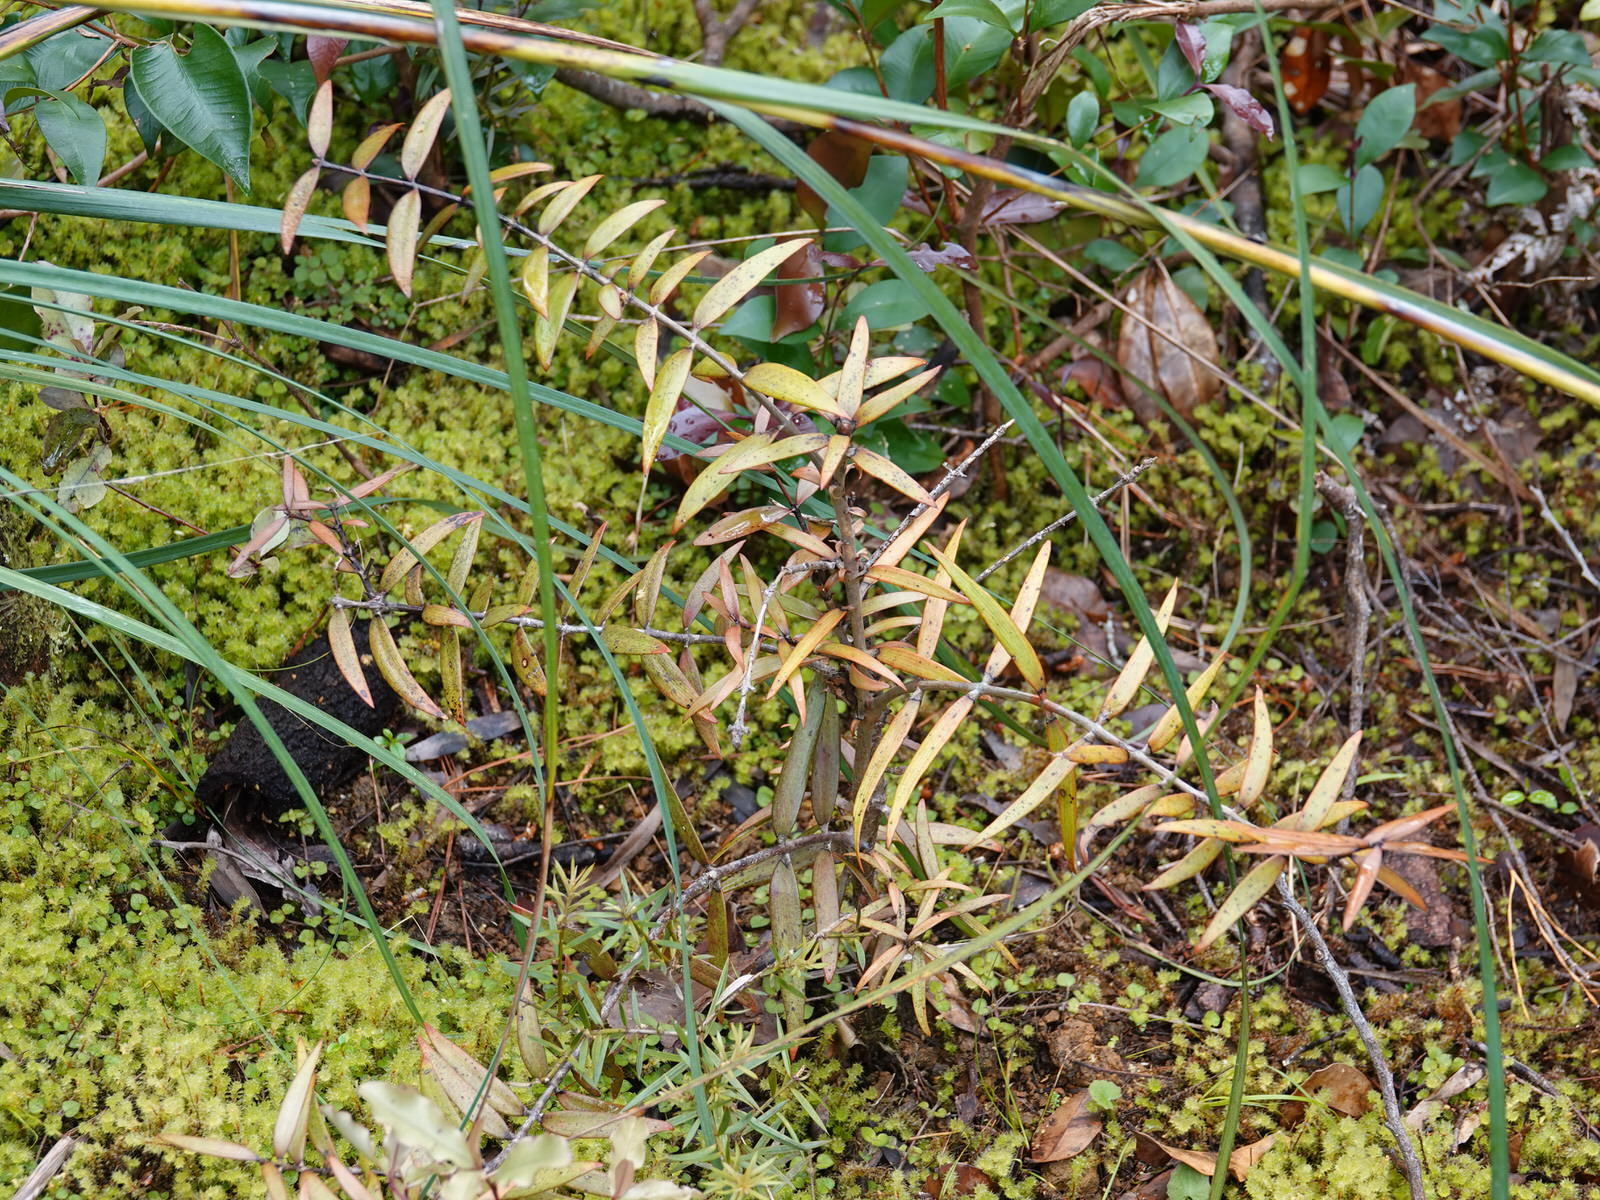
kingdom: Plantae
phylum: Tracheophyta
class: Pinopsida
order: Pinales
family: Araucariaceae
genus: Agathis
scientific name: Agathis australis
